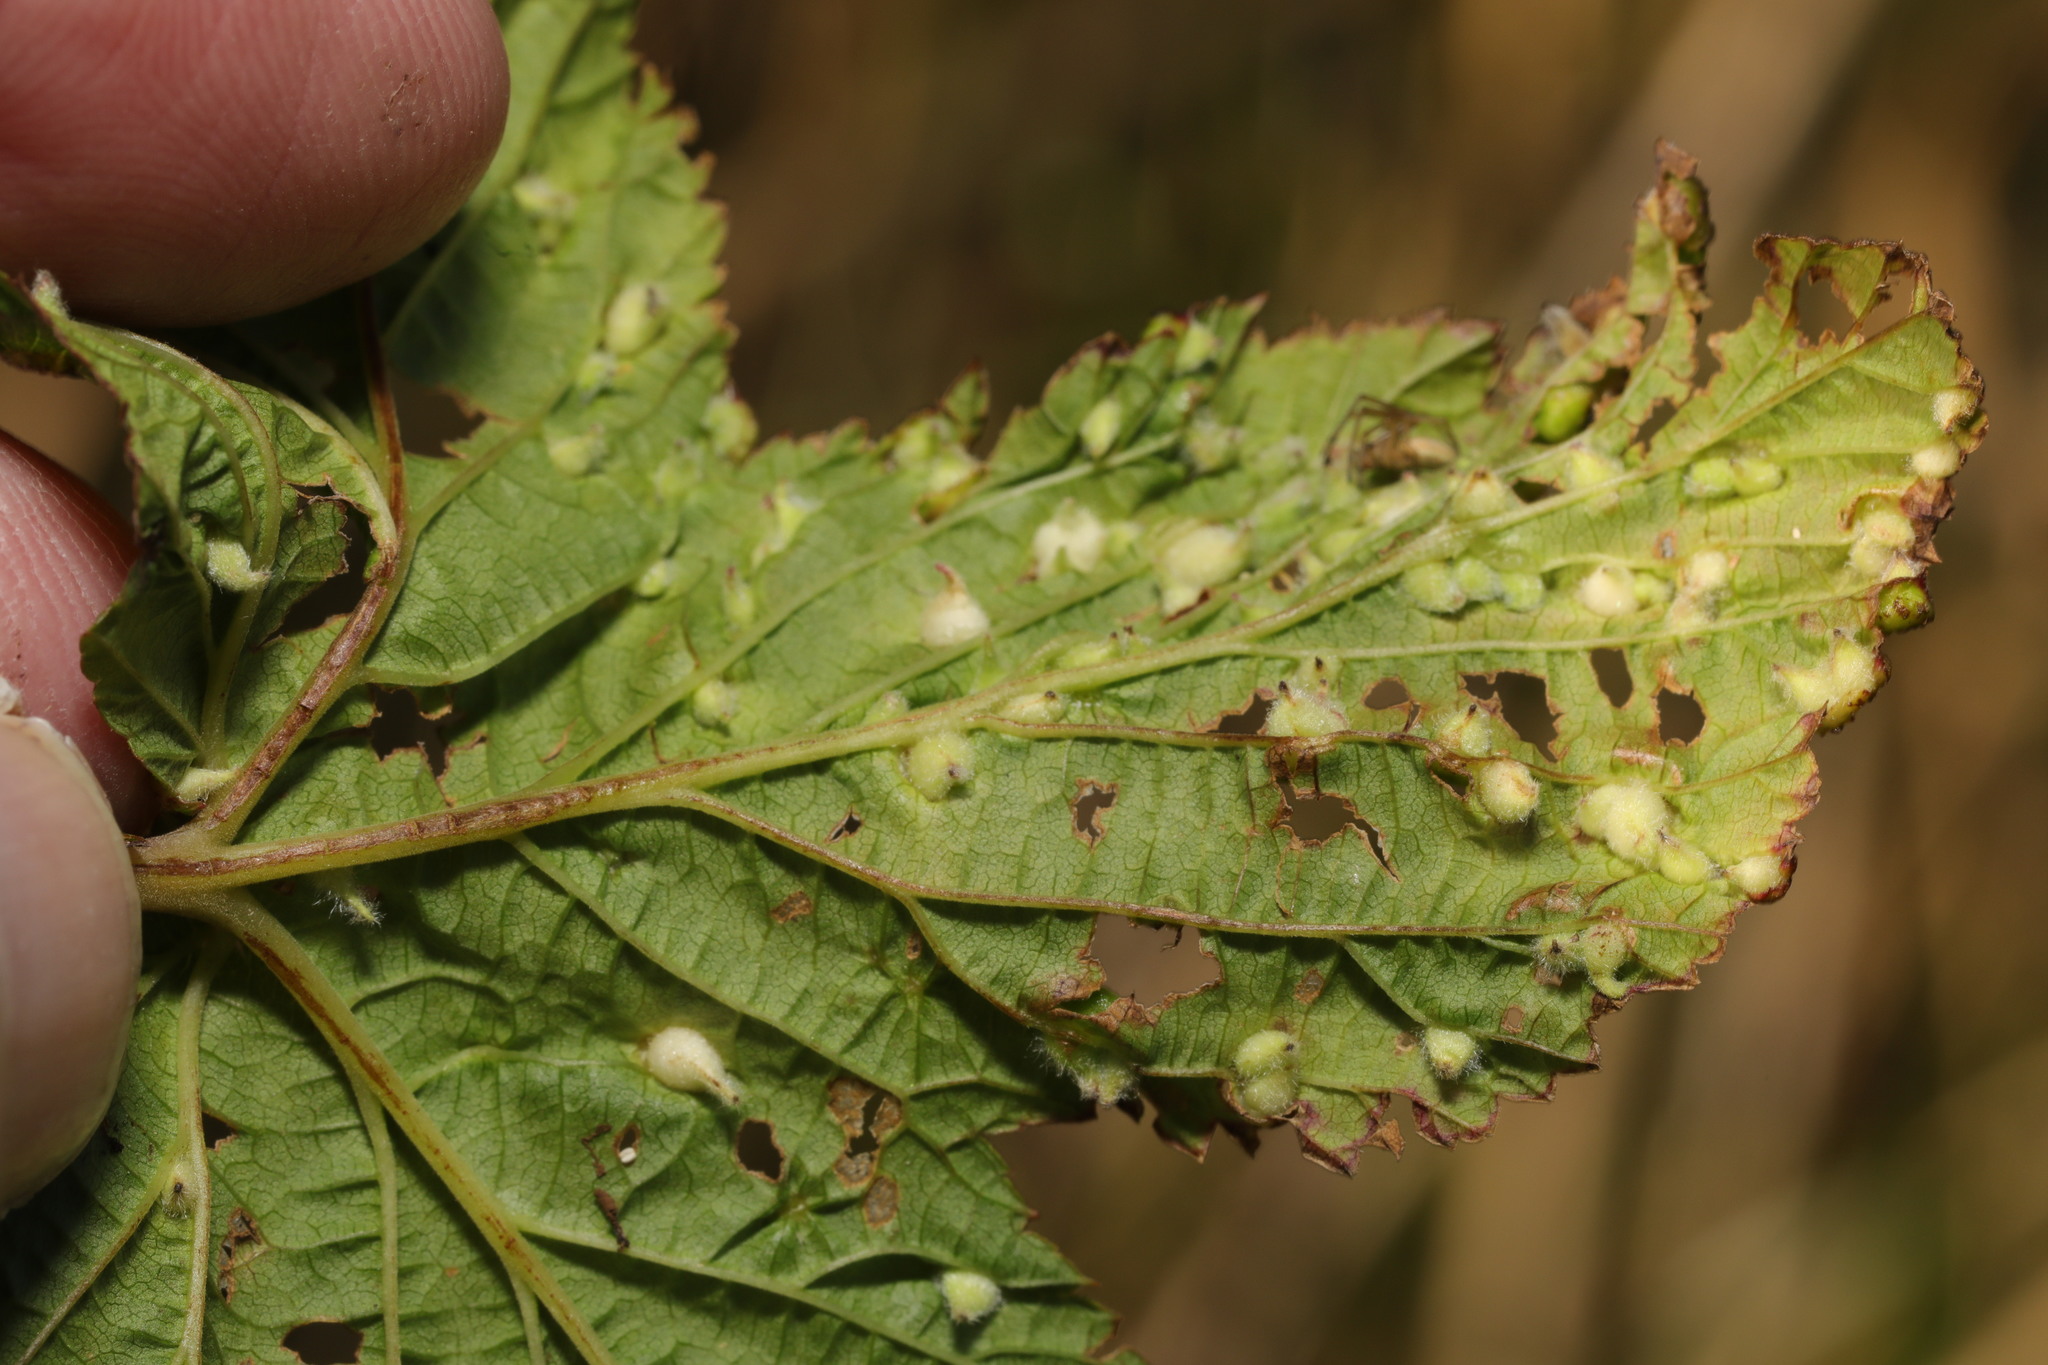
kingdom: Animalia
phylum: Arthropoda
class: Insecta
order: Diptera
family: Cecidomyiidae
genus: Dasineura
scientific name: Dasineura ulmaria
